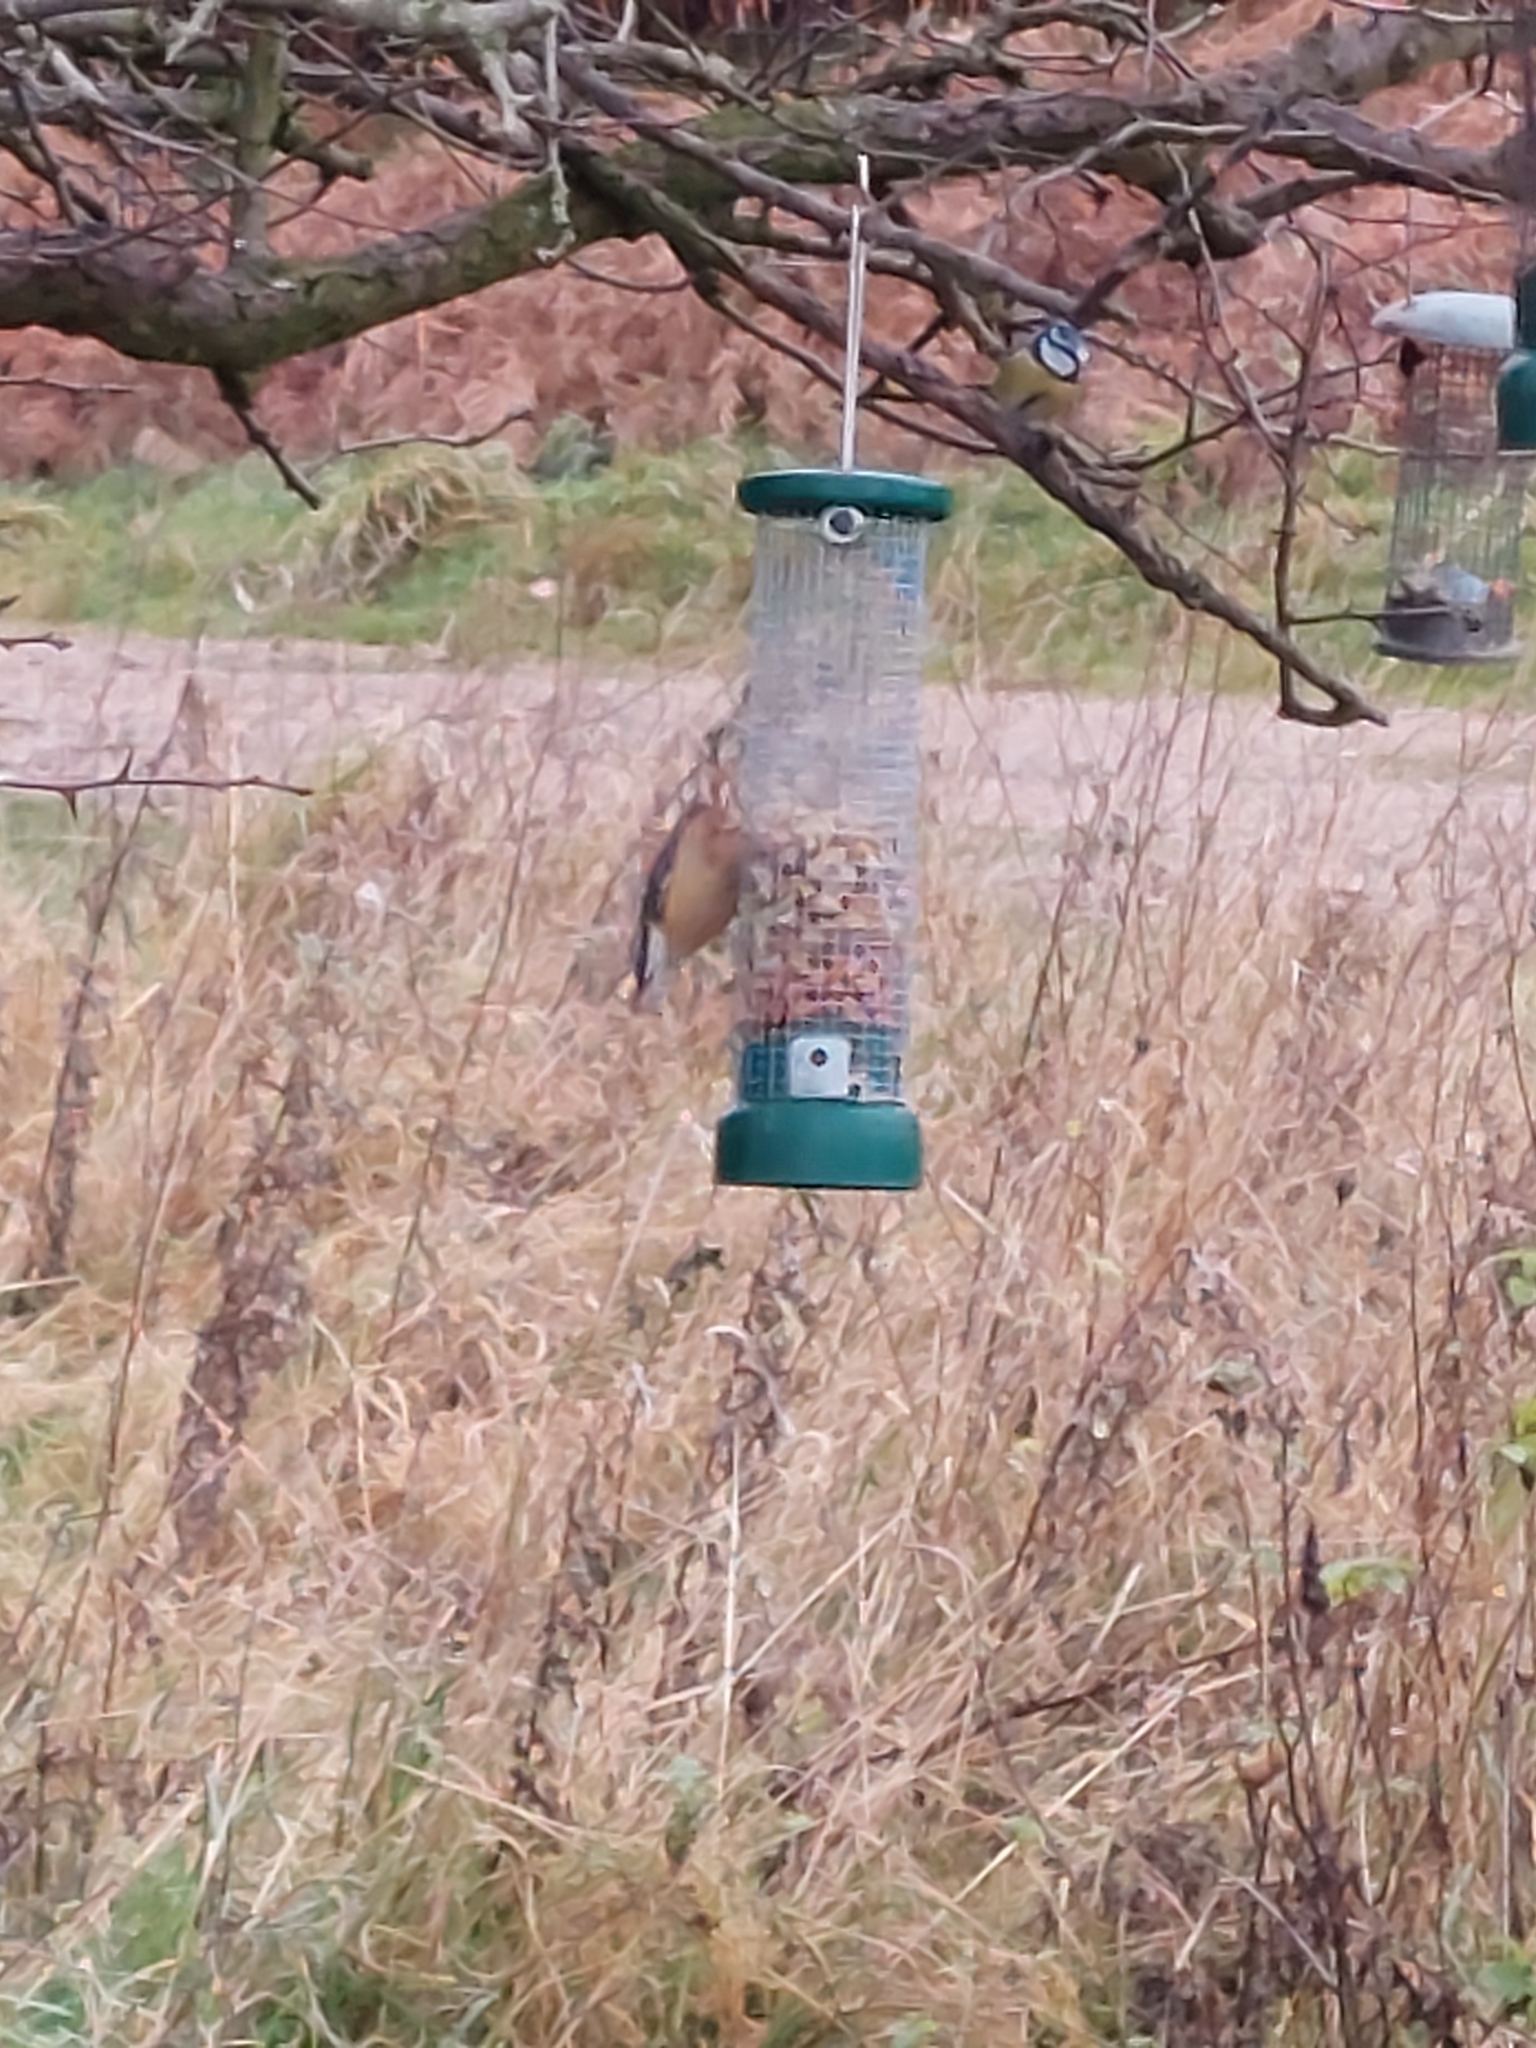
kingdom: Animalia
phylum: Chordata
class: Aves
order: Passeriformes
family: Sittidae
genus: Sitta
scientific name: Sitta europaea
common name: Eurasian nuthatch
